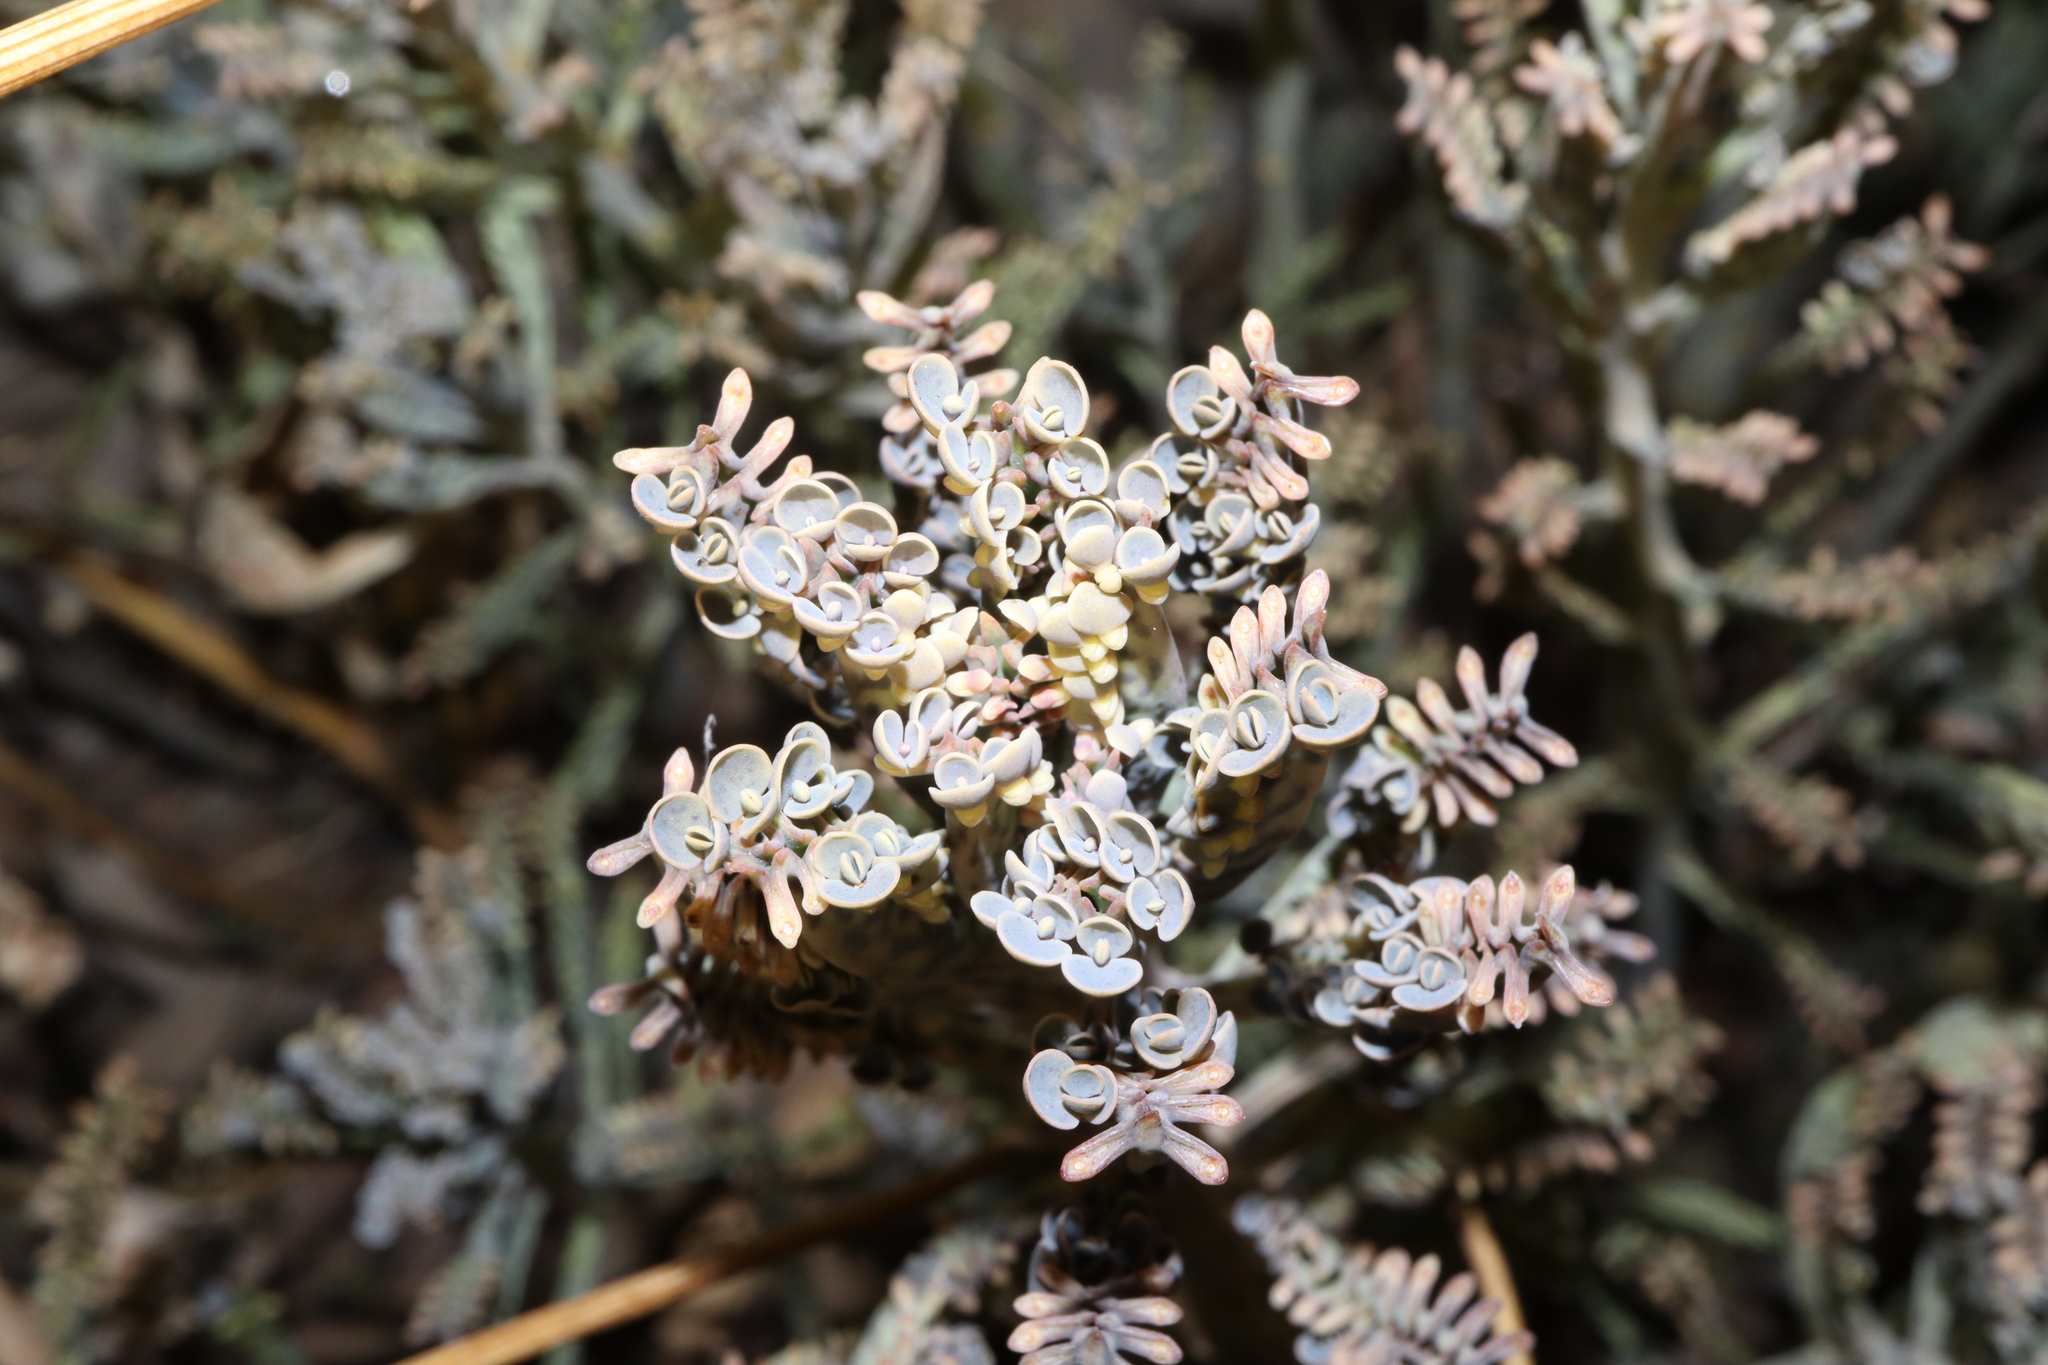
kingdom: Plantae
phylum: Tracheophyta
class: Magnoliopsida
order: Saxifragales
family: Crassulaceae
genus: Kalanchoe
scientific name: Kalanchoe houghtonii
